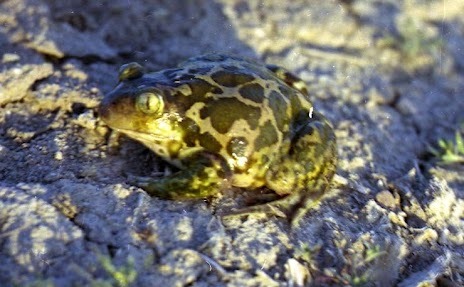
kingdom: Animalia
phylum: Chordata
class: Amphibia
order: Anura
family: Pelobatidae
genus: Pelobates
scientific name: Pelobates syriacus
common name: Syrian spadefoot toad
